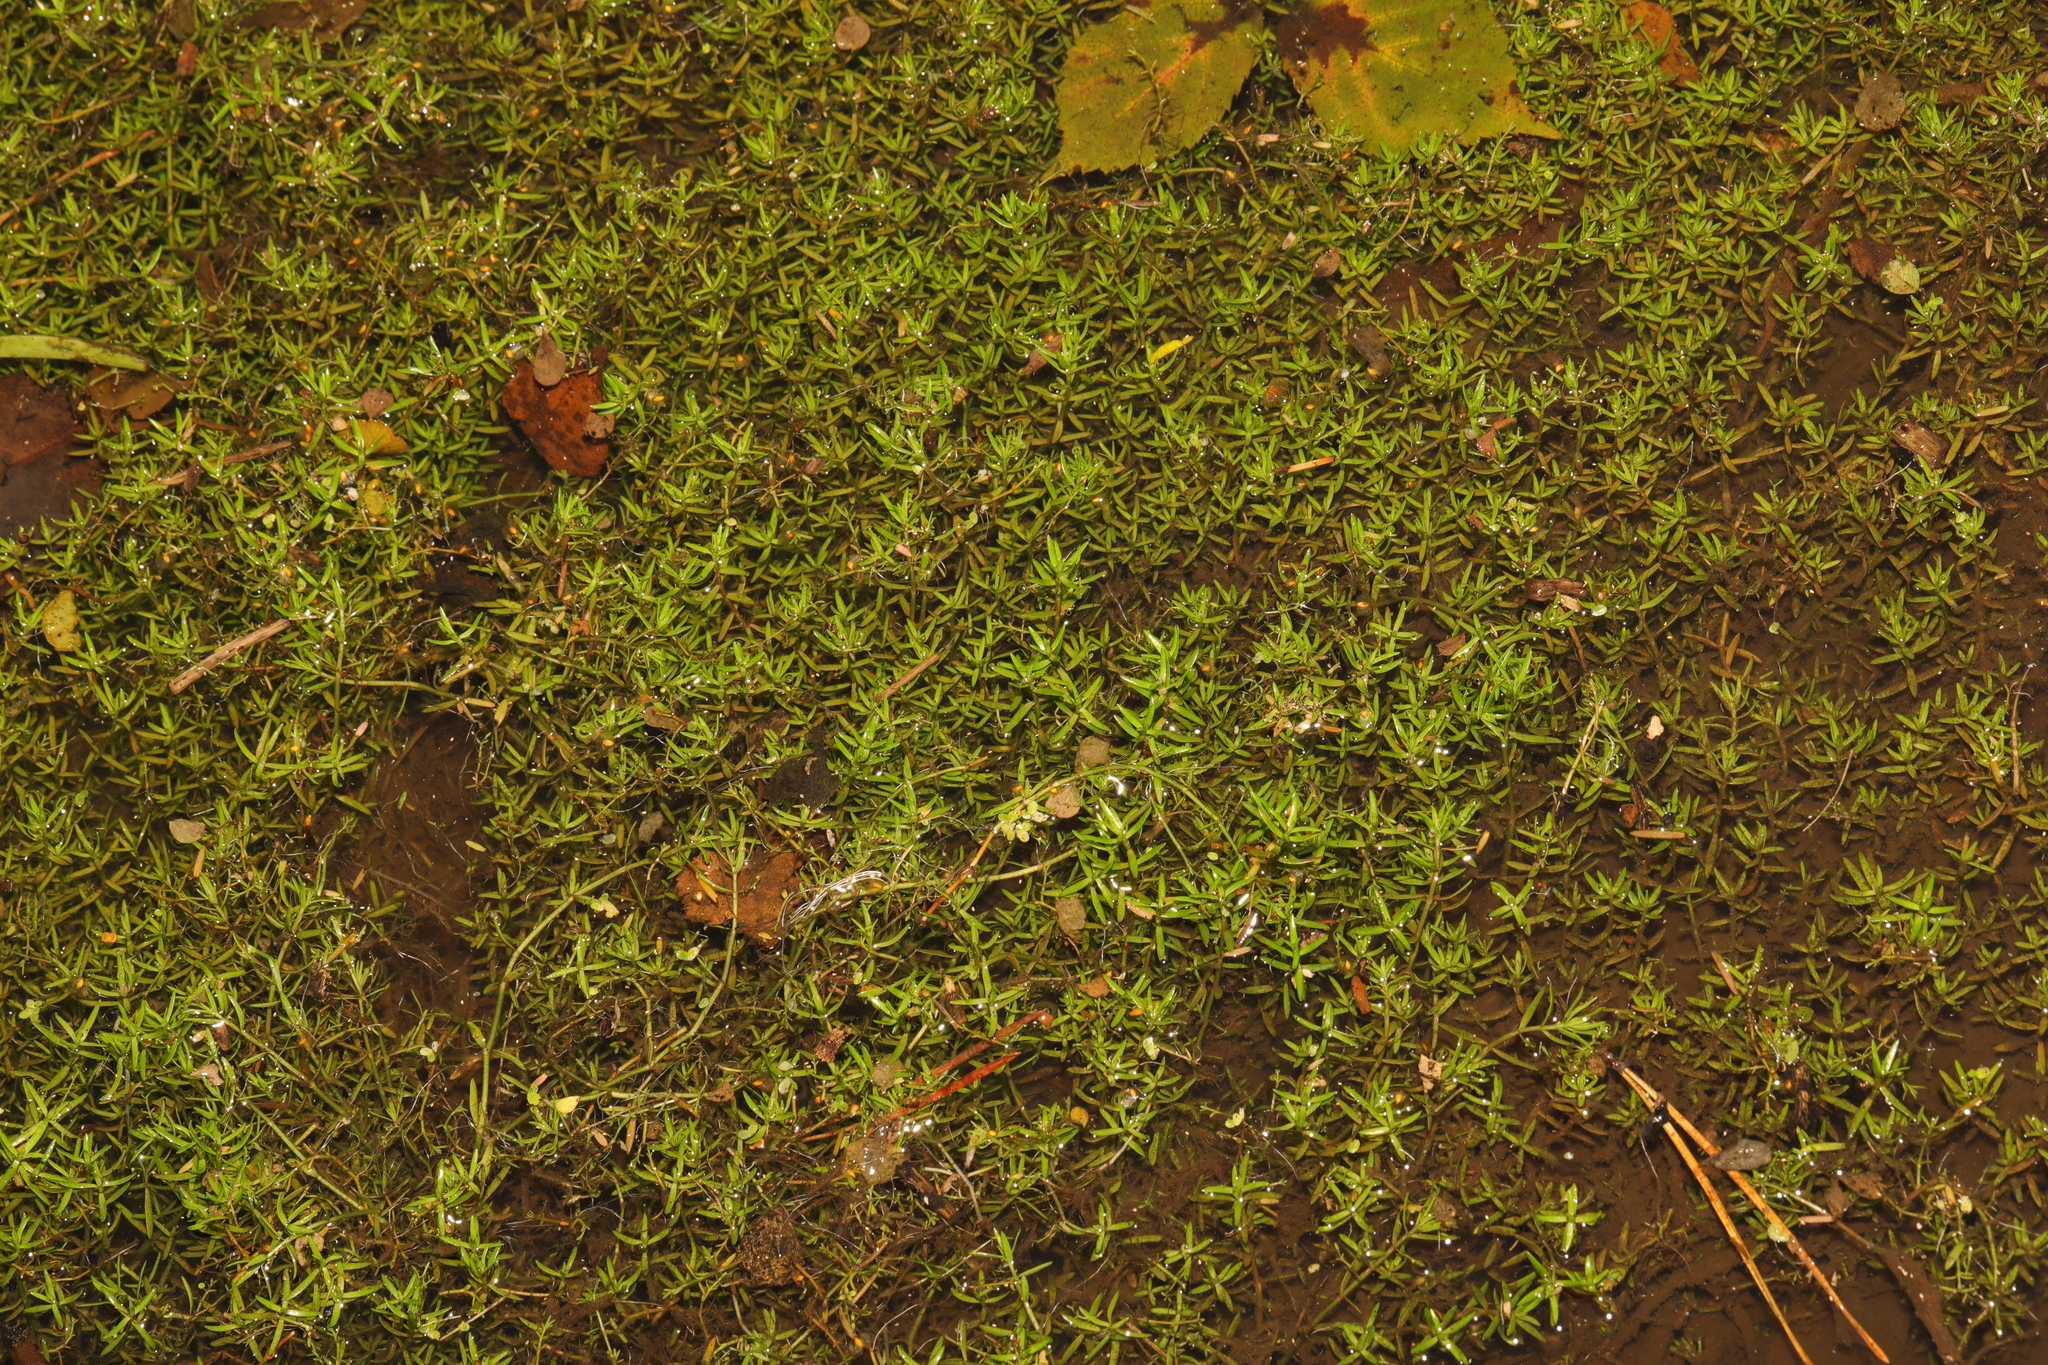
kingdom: Plantae
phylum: Tracheophyta
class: Magnoliopsida
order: Saxifragales
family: Crassulaceae
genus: Crassula
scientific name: Crassula helmsii
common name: New zealand pigmyweed
